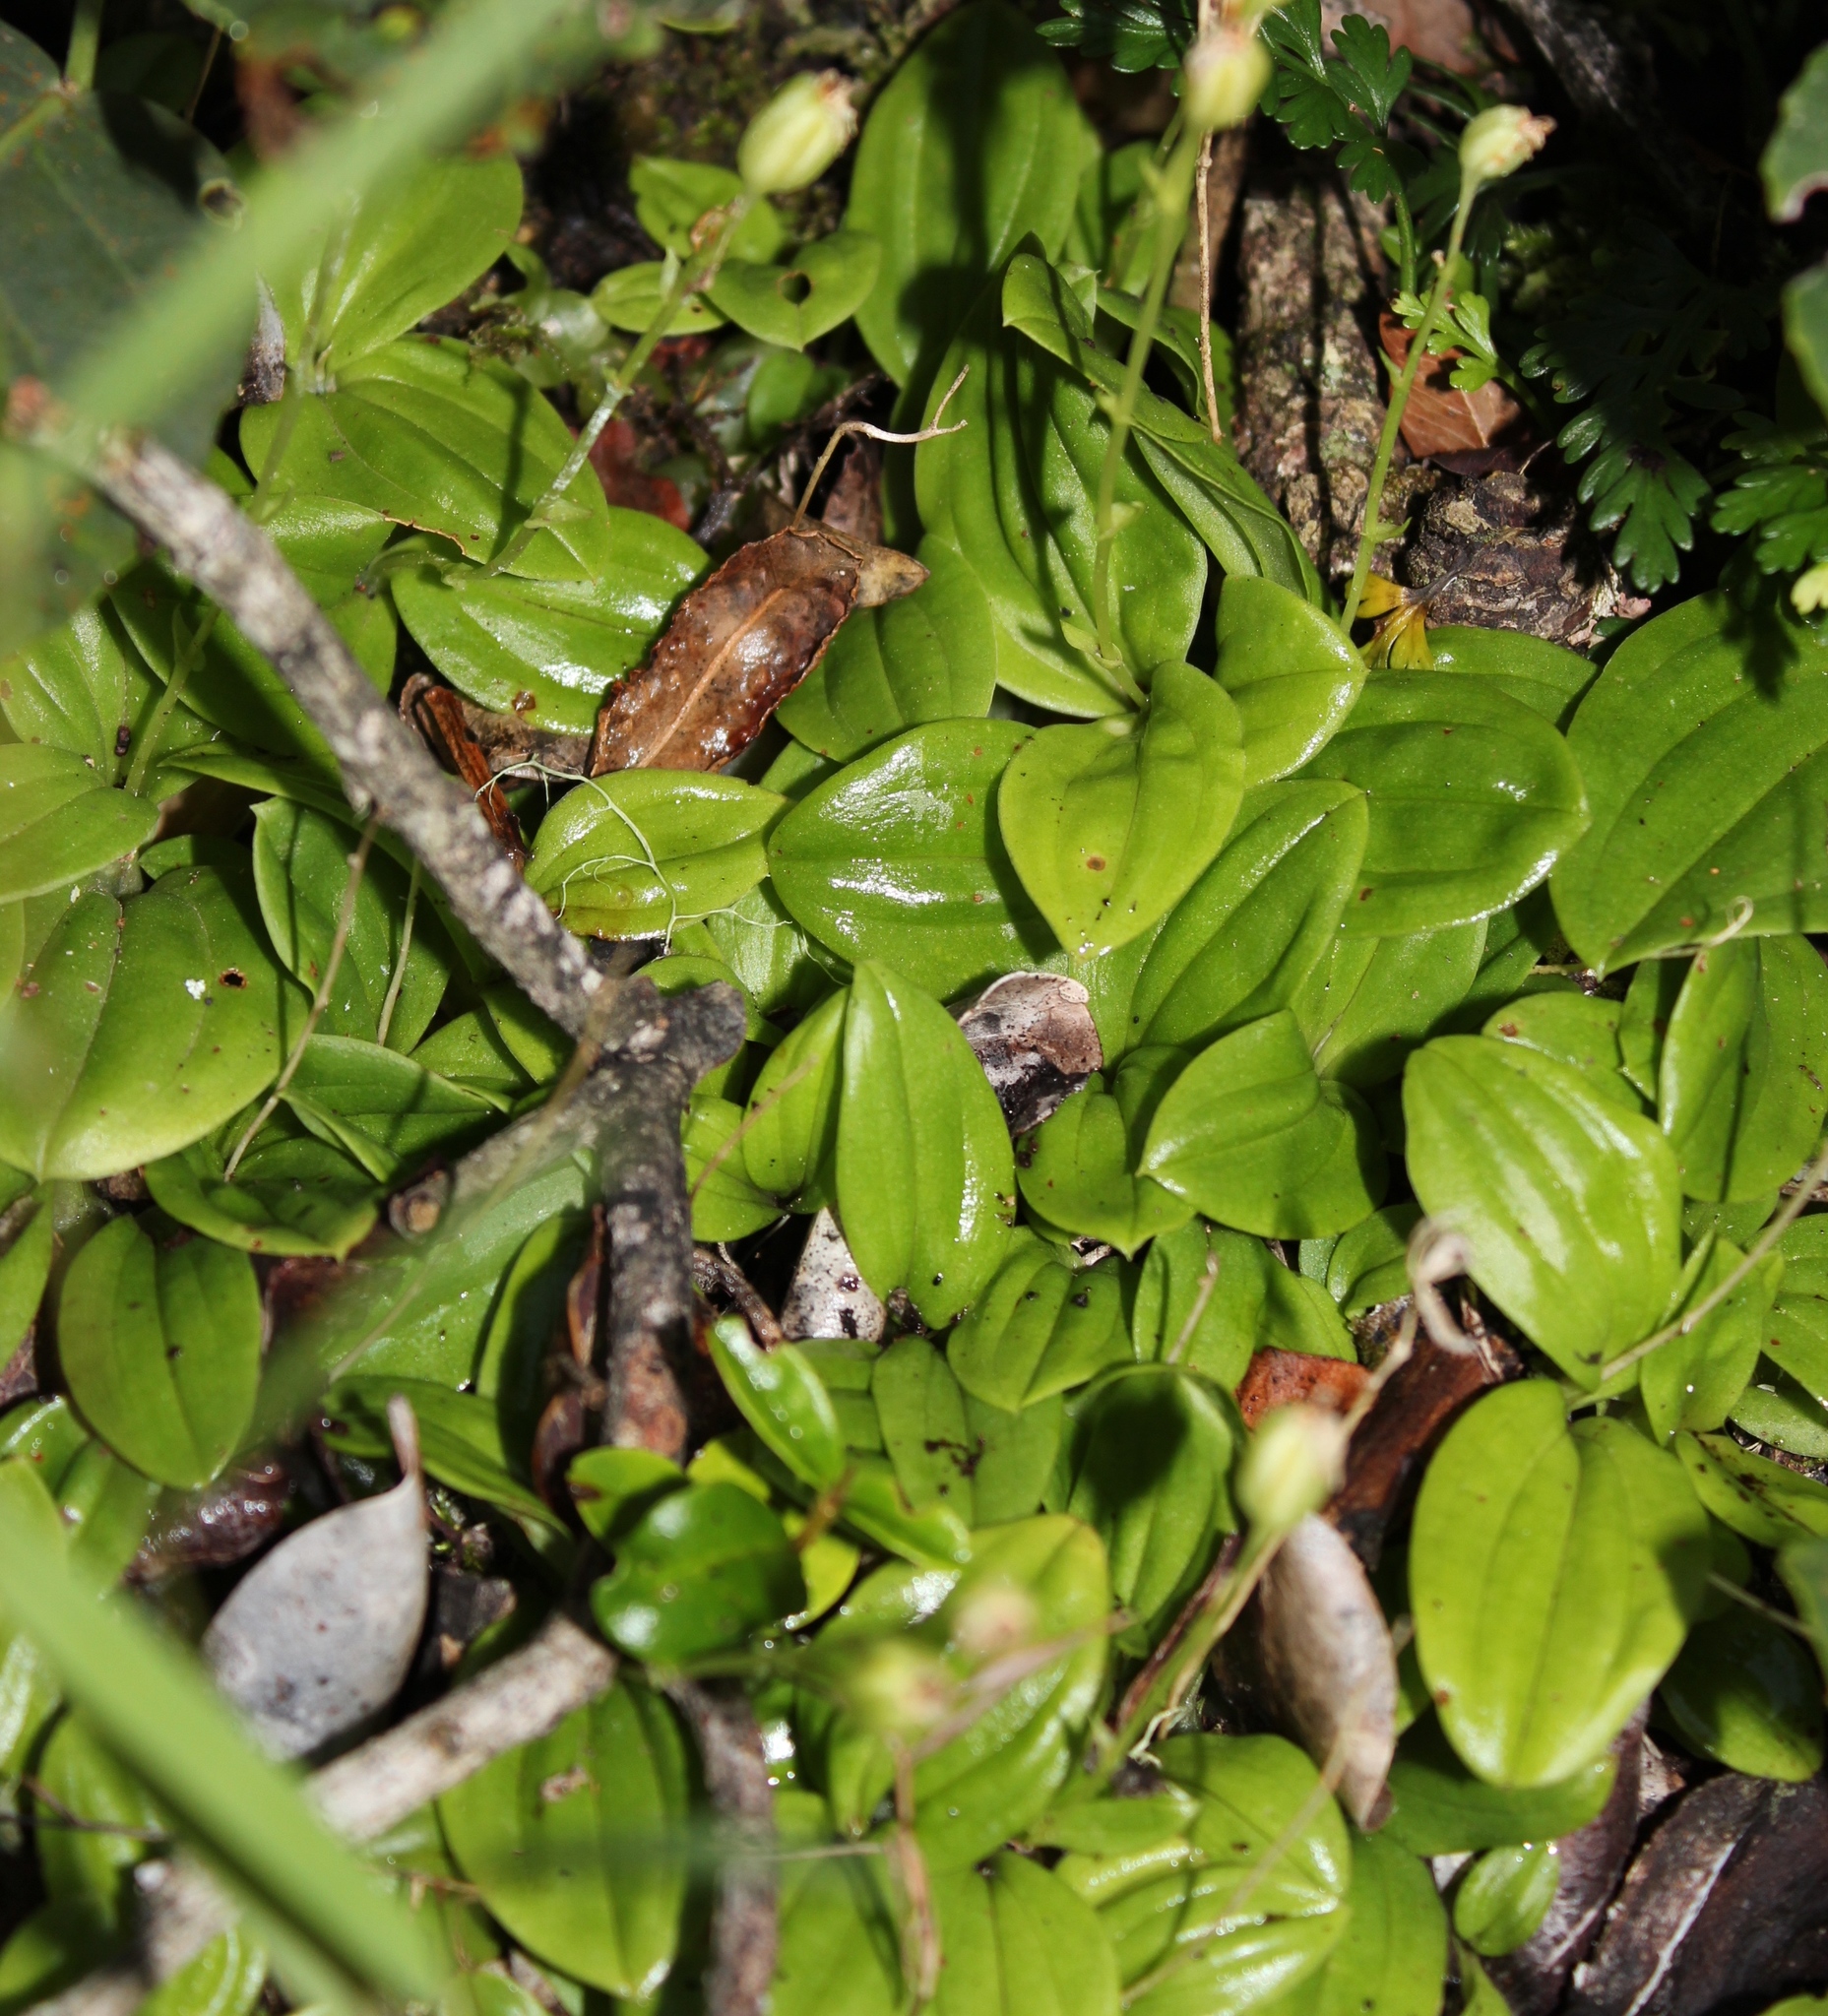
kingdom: Plantae
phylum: Tracheophyta
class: Liliopsida
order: Asparagales
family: Orchidaceae
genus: Liparis
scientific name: Liparis remota
